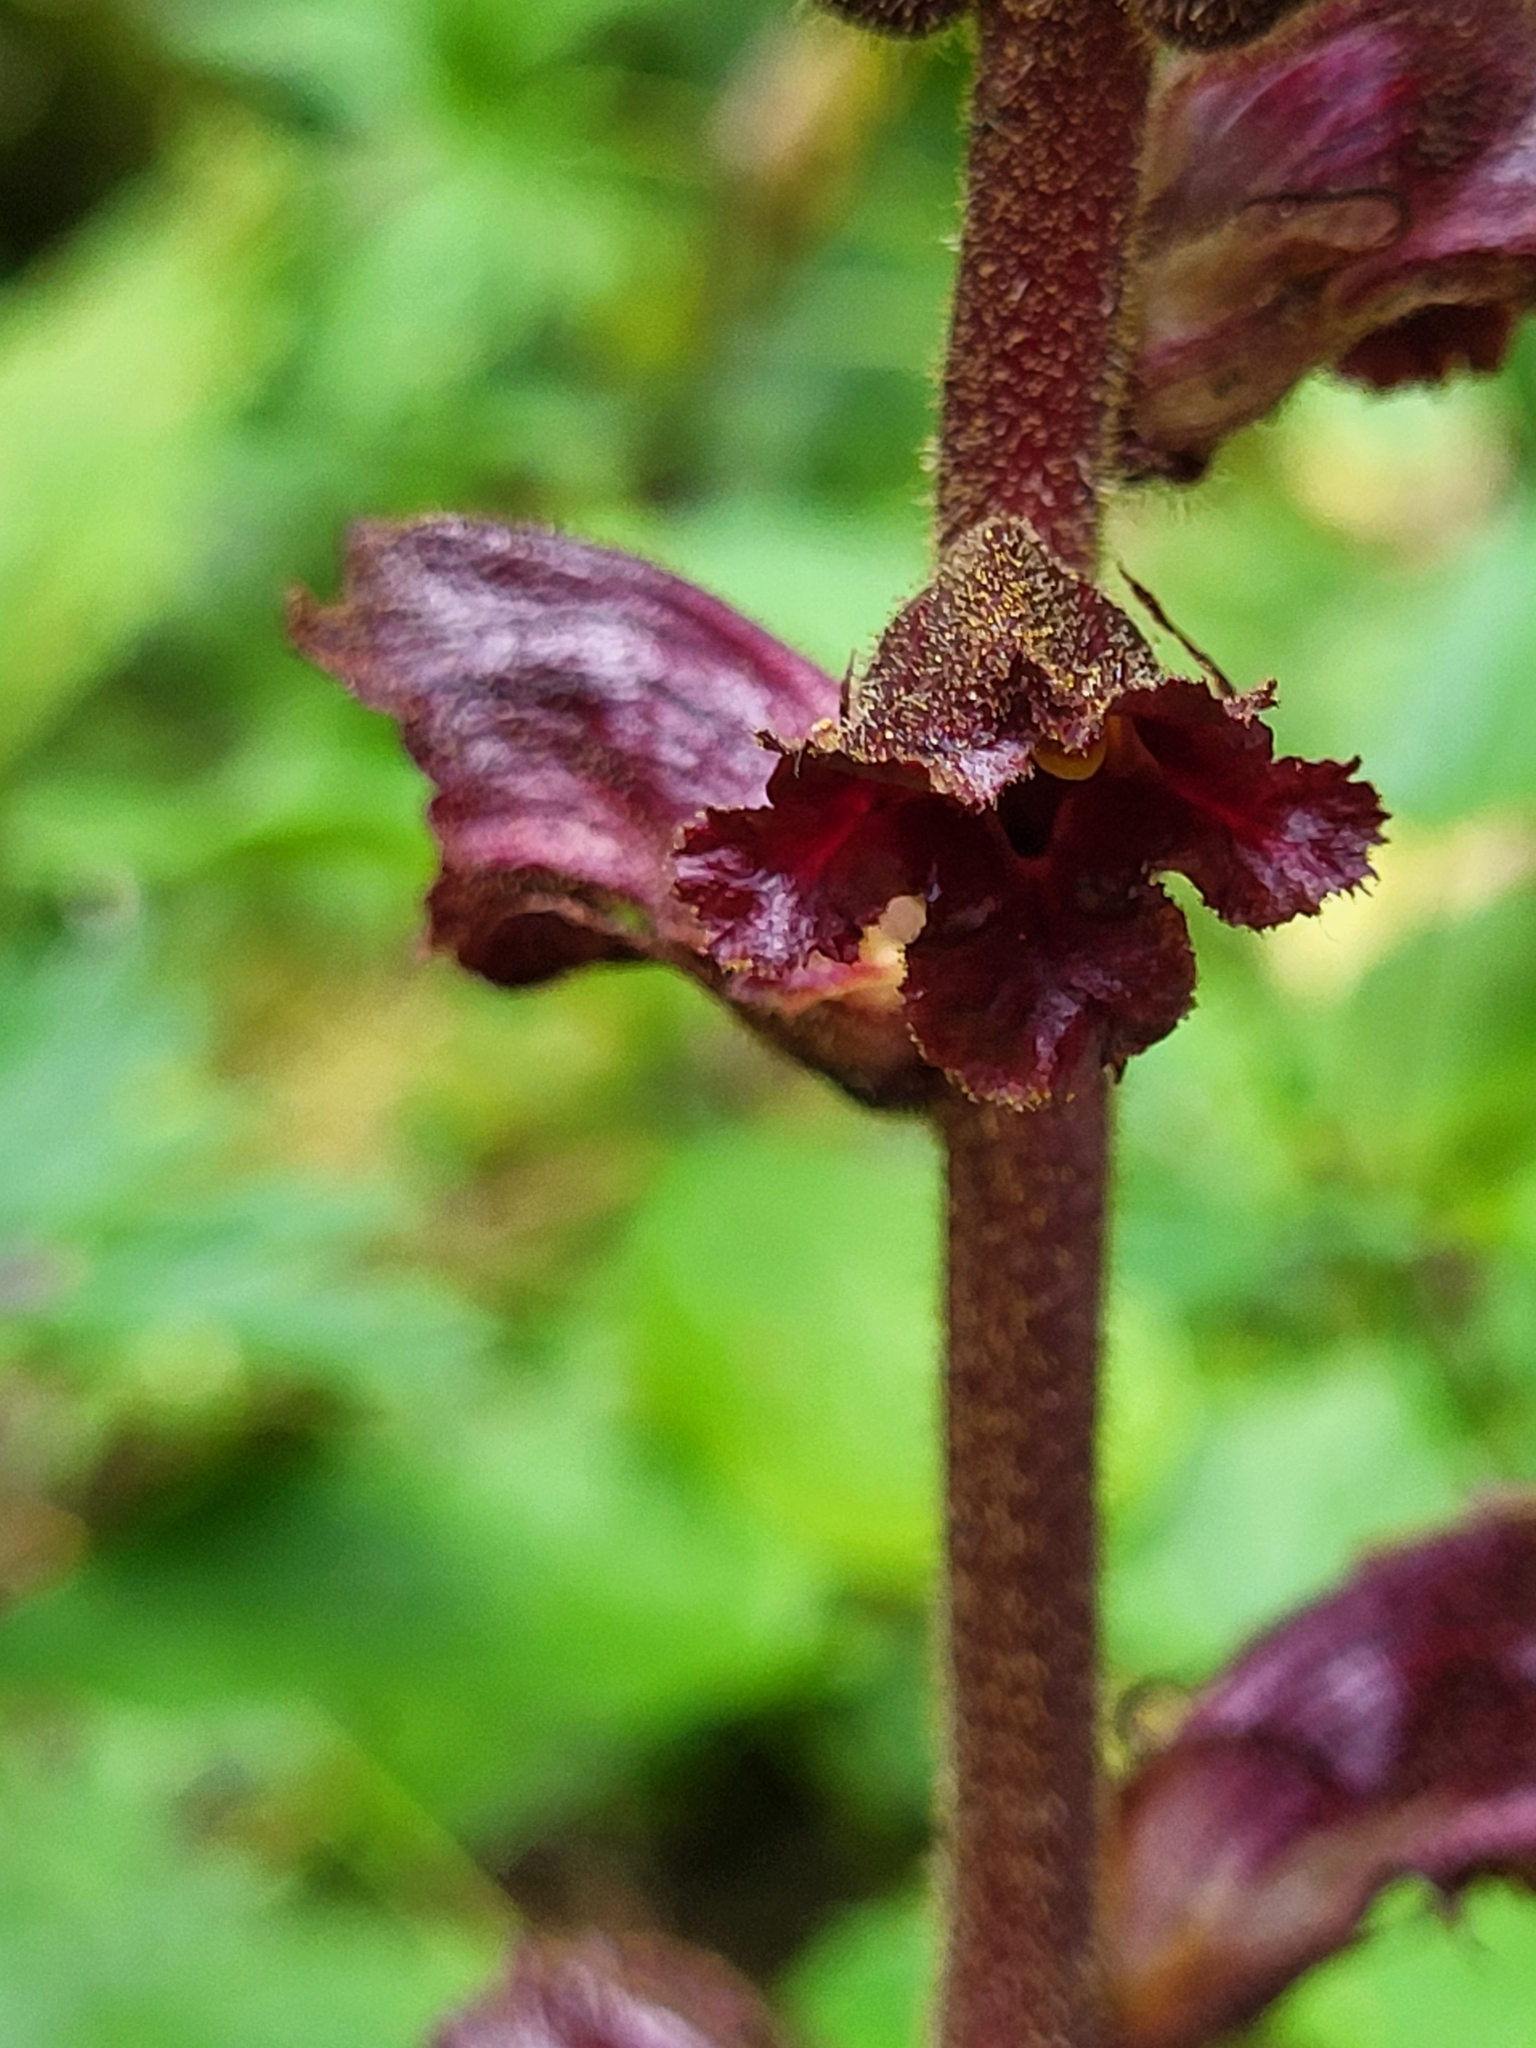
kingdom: Plantae
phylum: Tracheophyta
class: Magnoliopsida
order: Lamiales
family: Orobanchaceae
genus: Orobanche
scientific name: Orobanche gracilis
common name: Slender broomrape
